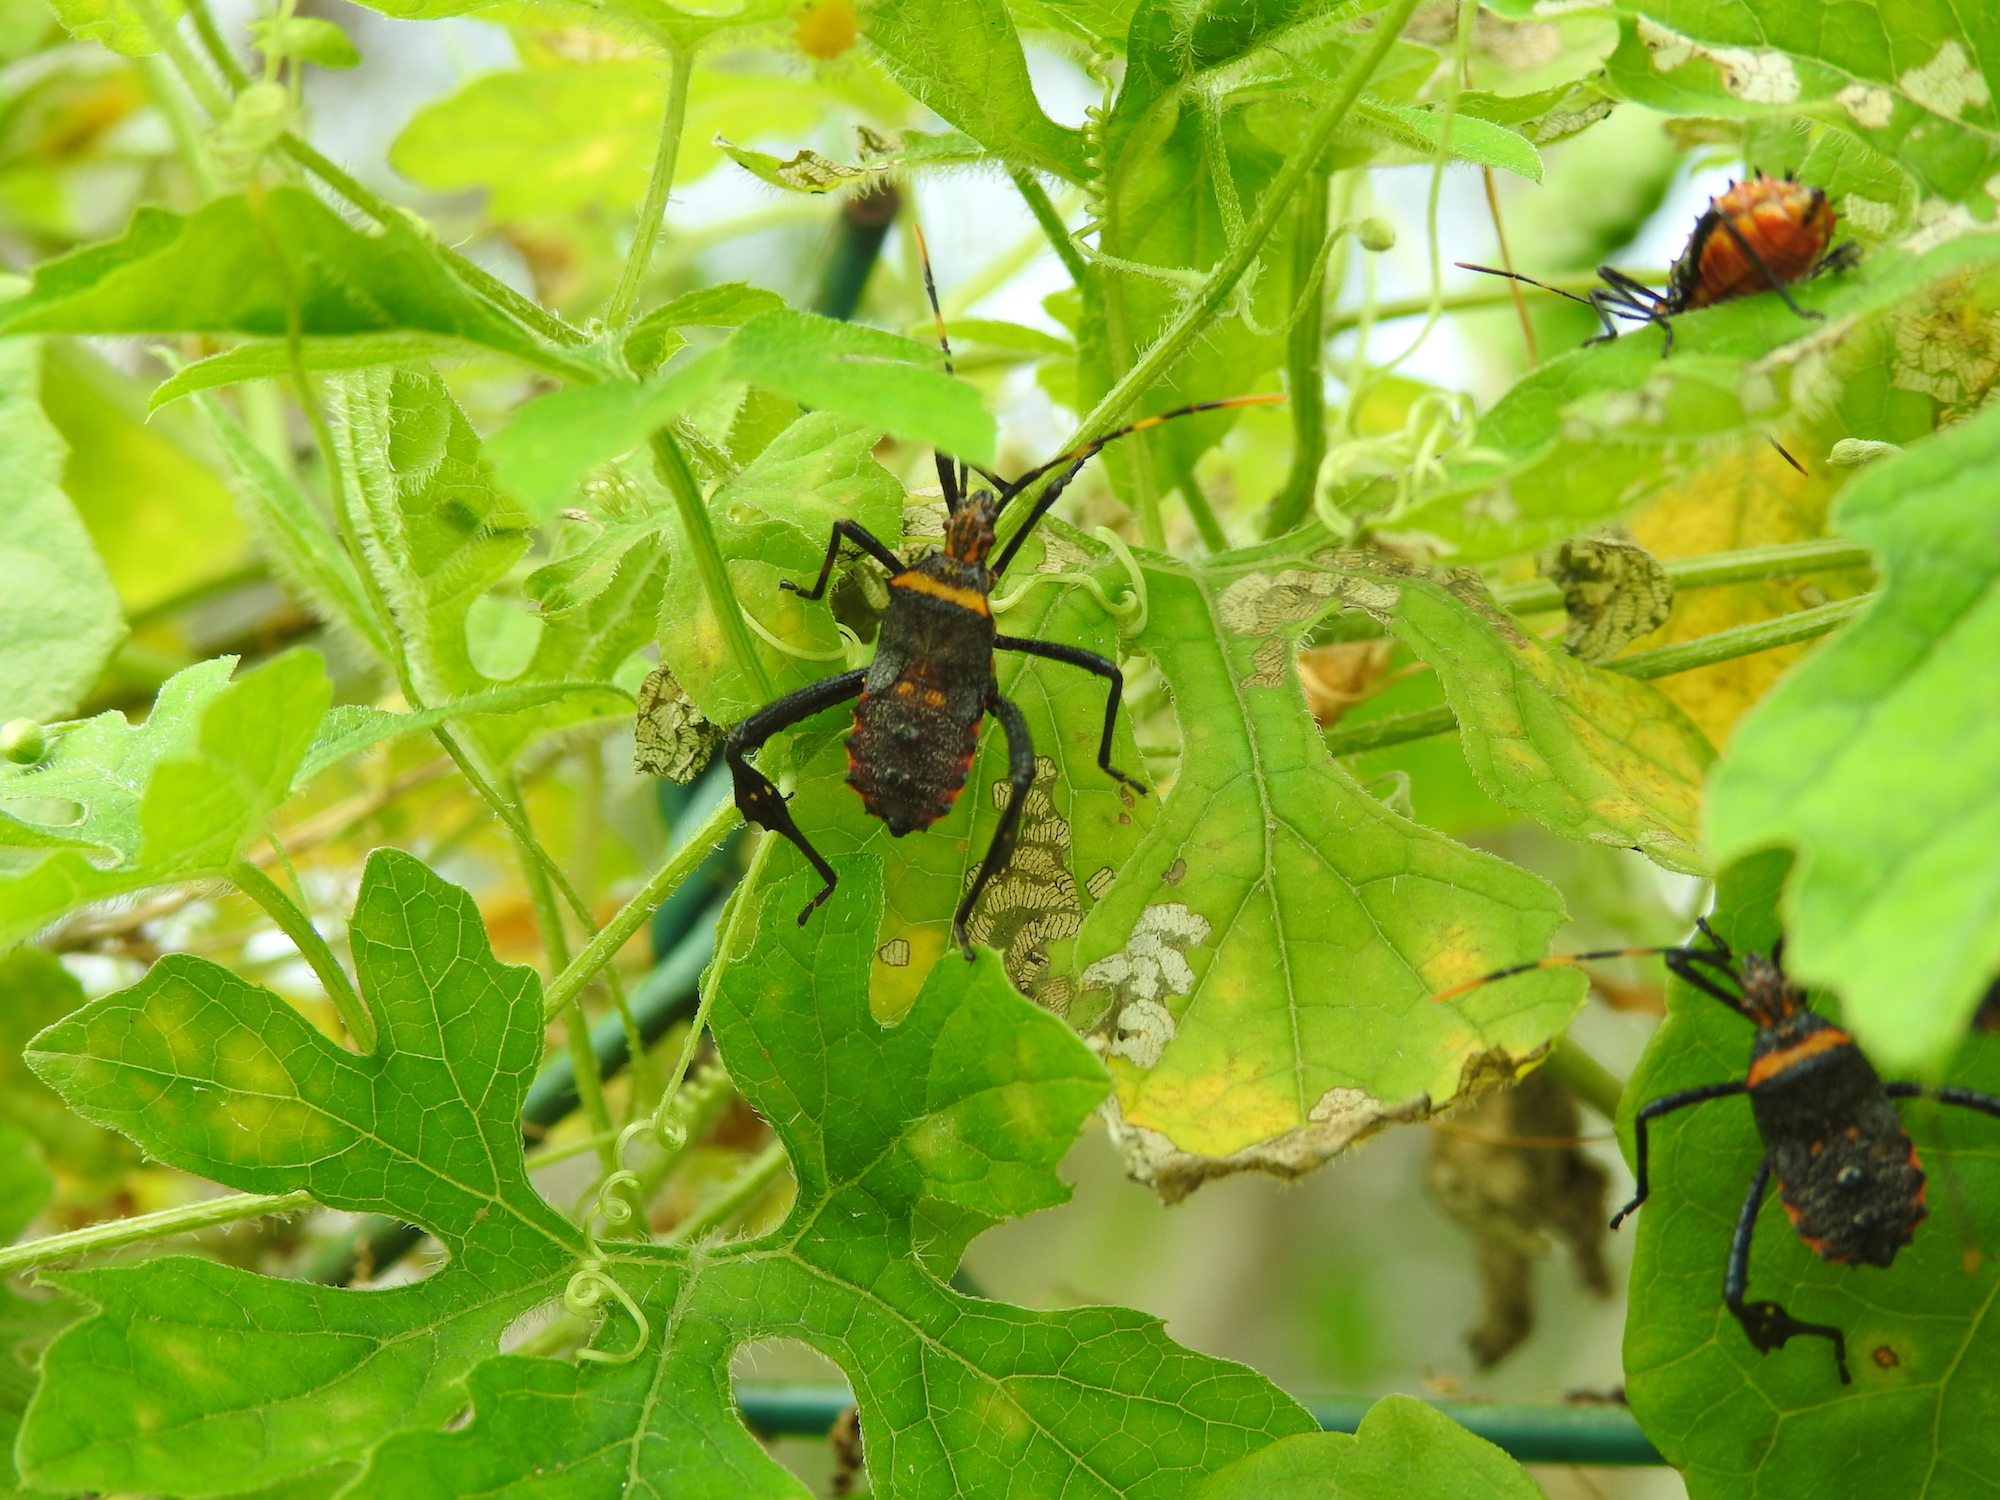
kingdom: Animalia
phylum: Arthropoda
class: Insecta
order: Hemiptera
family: Coreidae
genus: Leptoglossus
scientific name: Leptoglossus gonagra
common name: Citron bug
